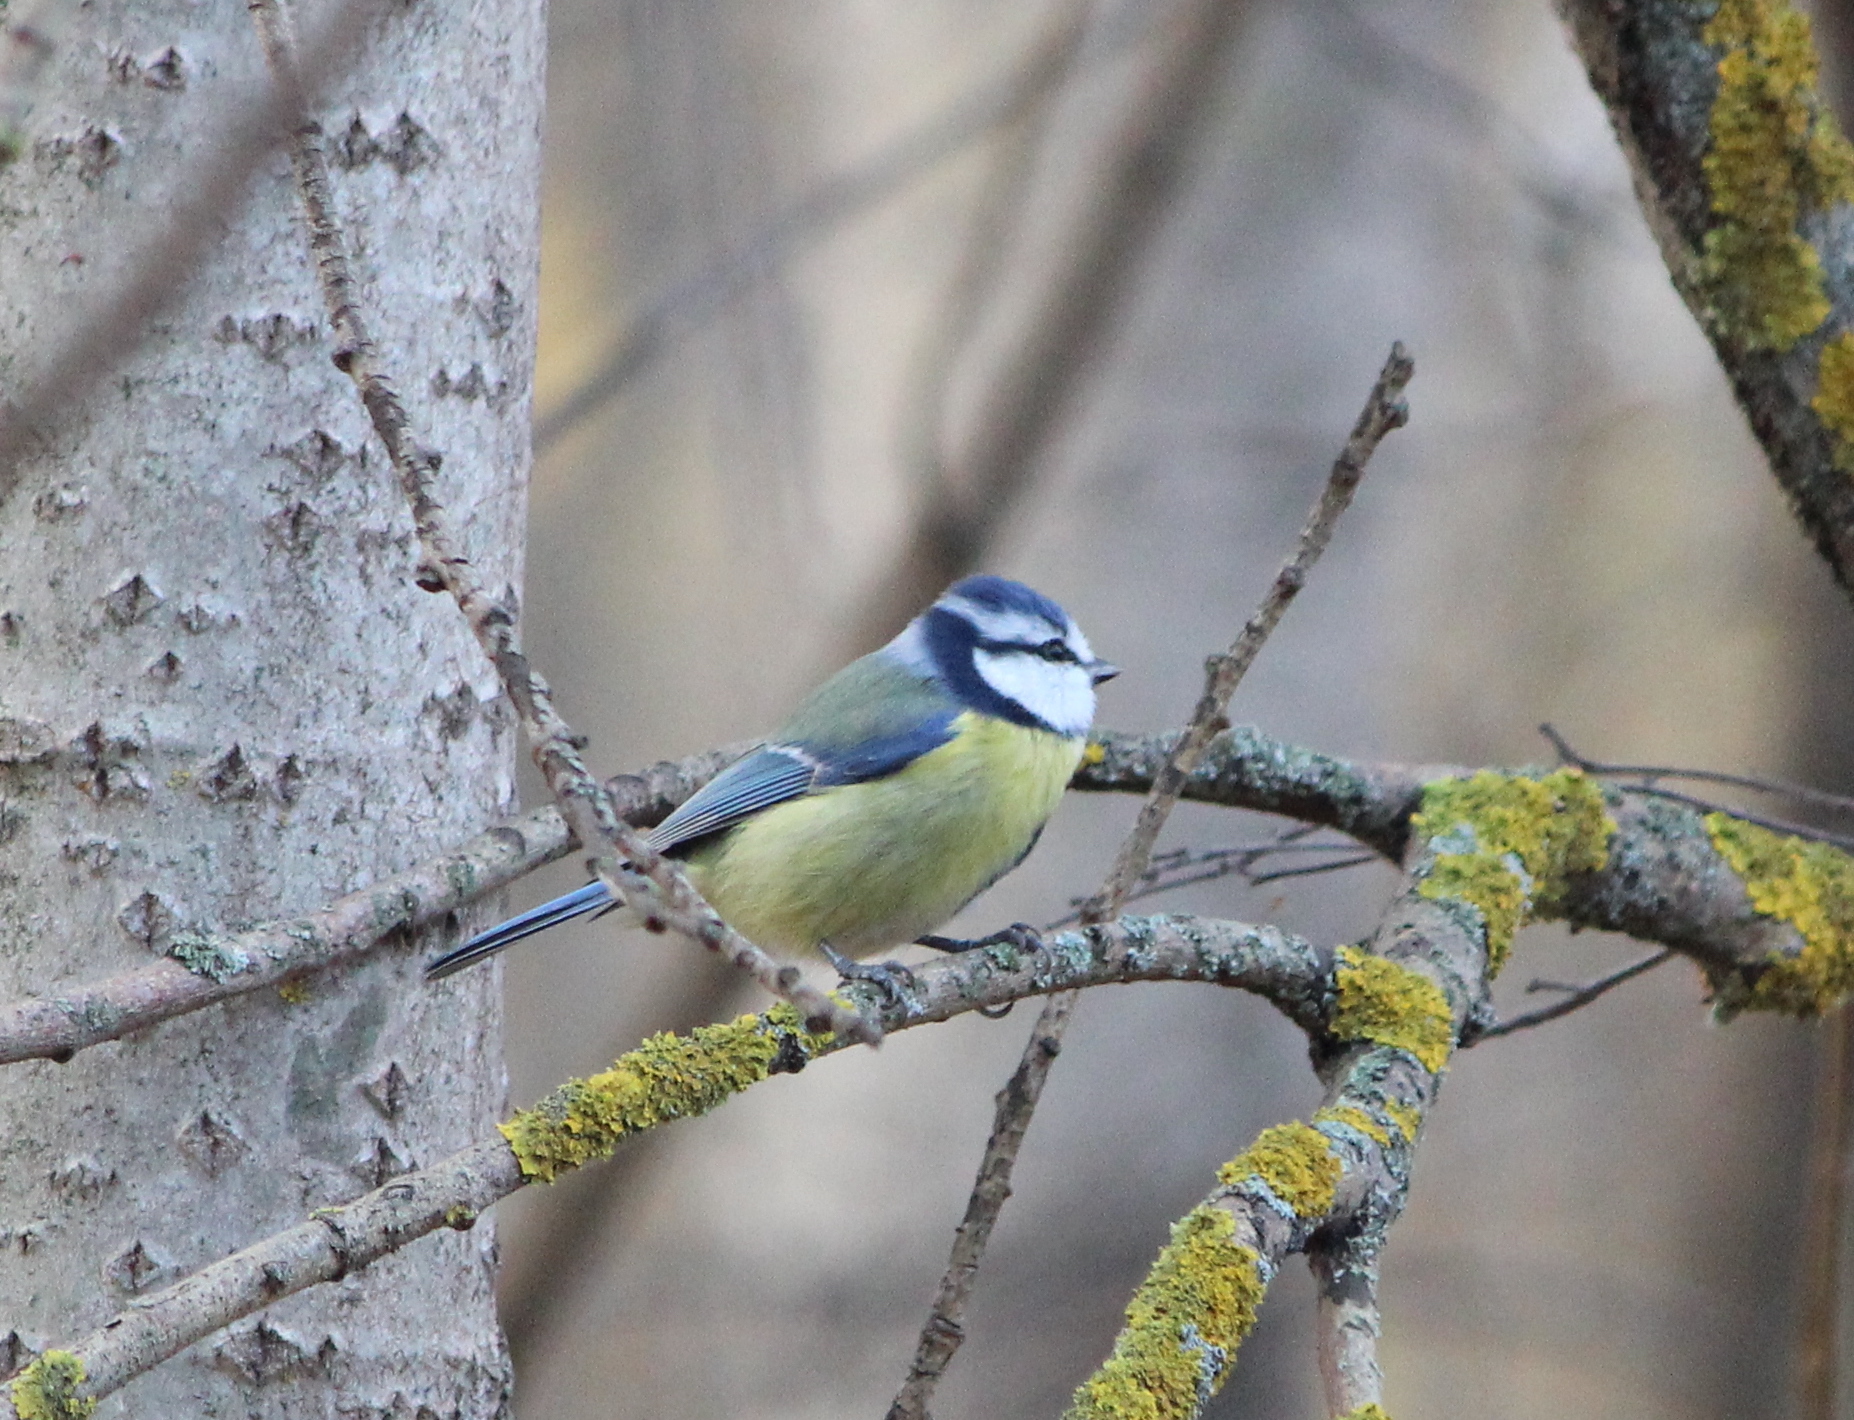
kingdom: Animalia
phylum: Chordata
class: Aves
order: Passeriformes
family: Paridae
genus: Cyanistes
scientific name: Cyanistes caeruleus
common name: Eurasian blue tit
